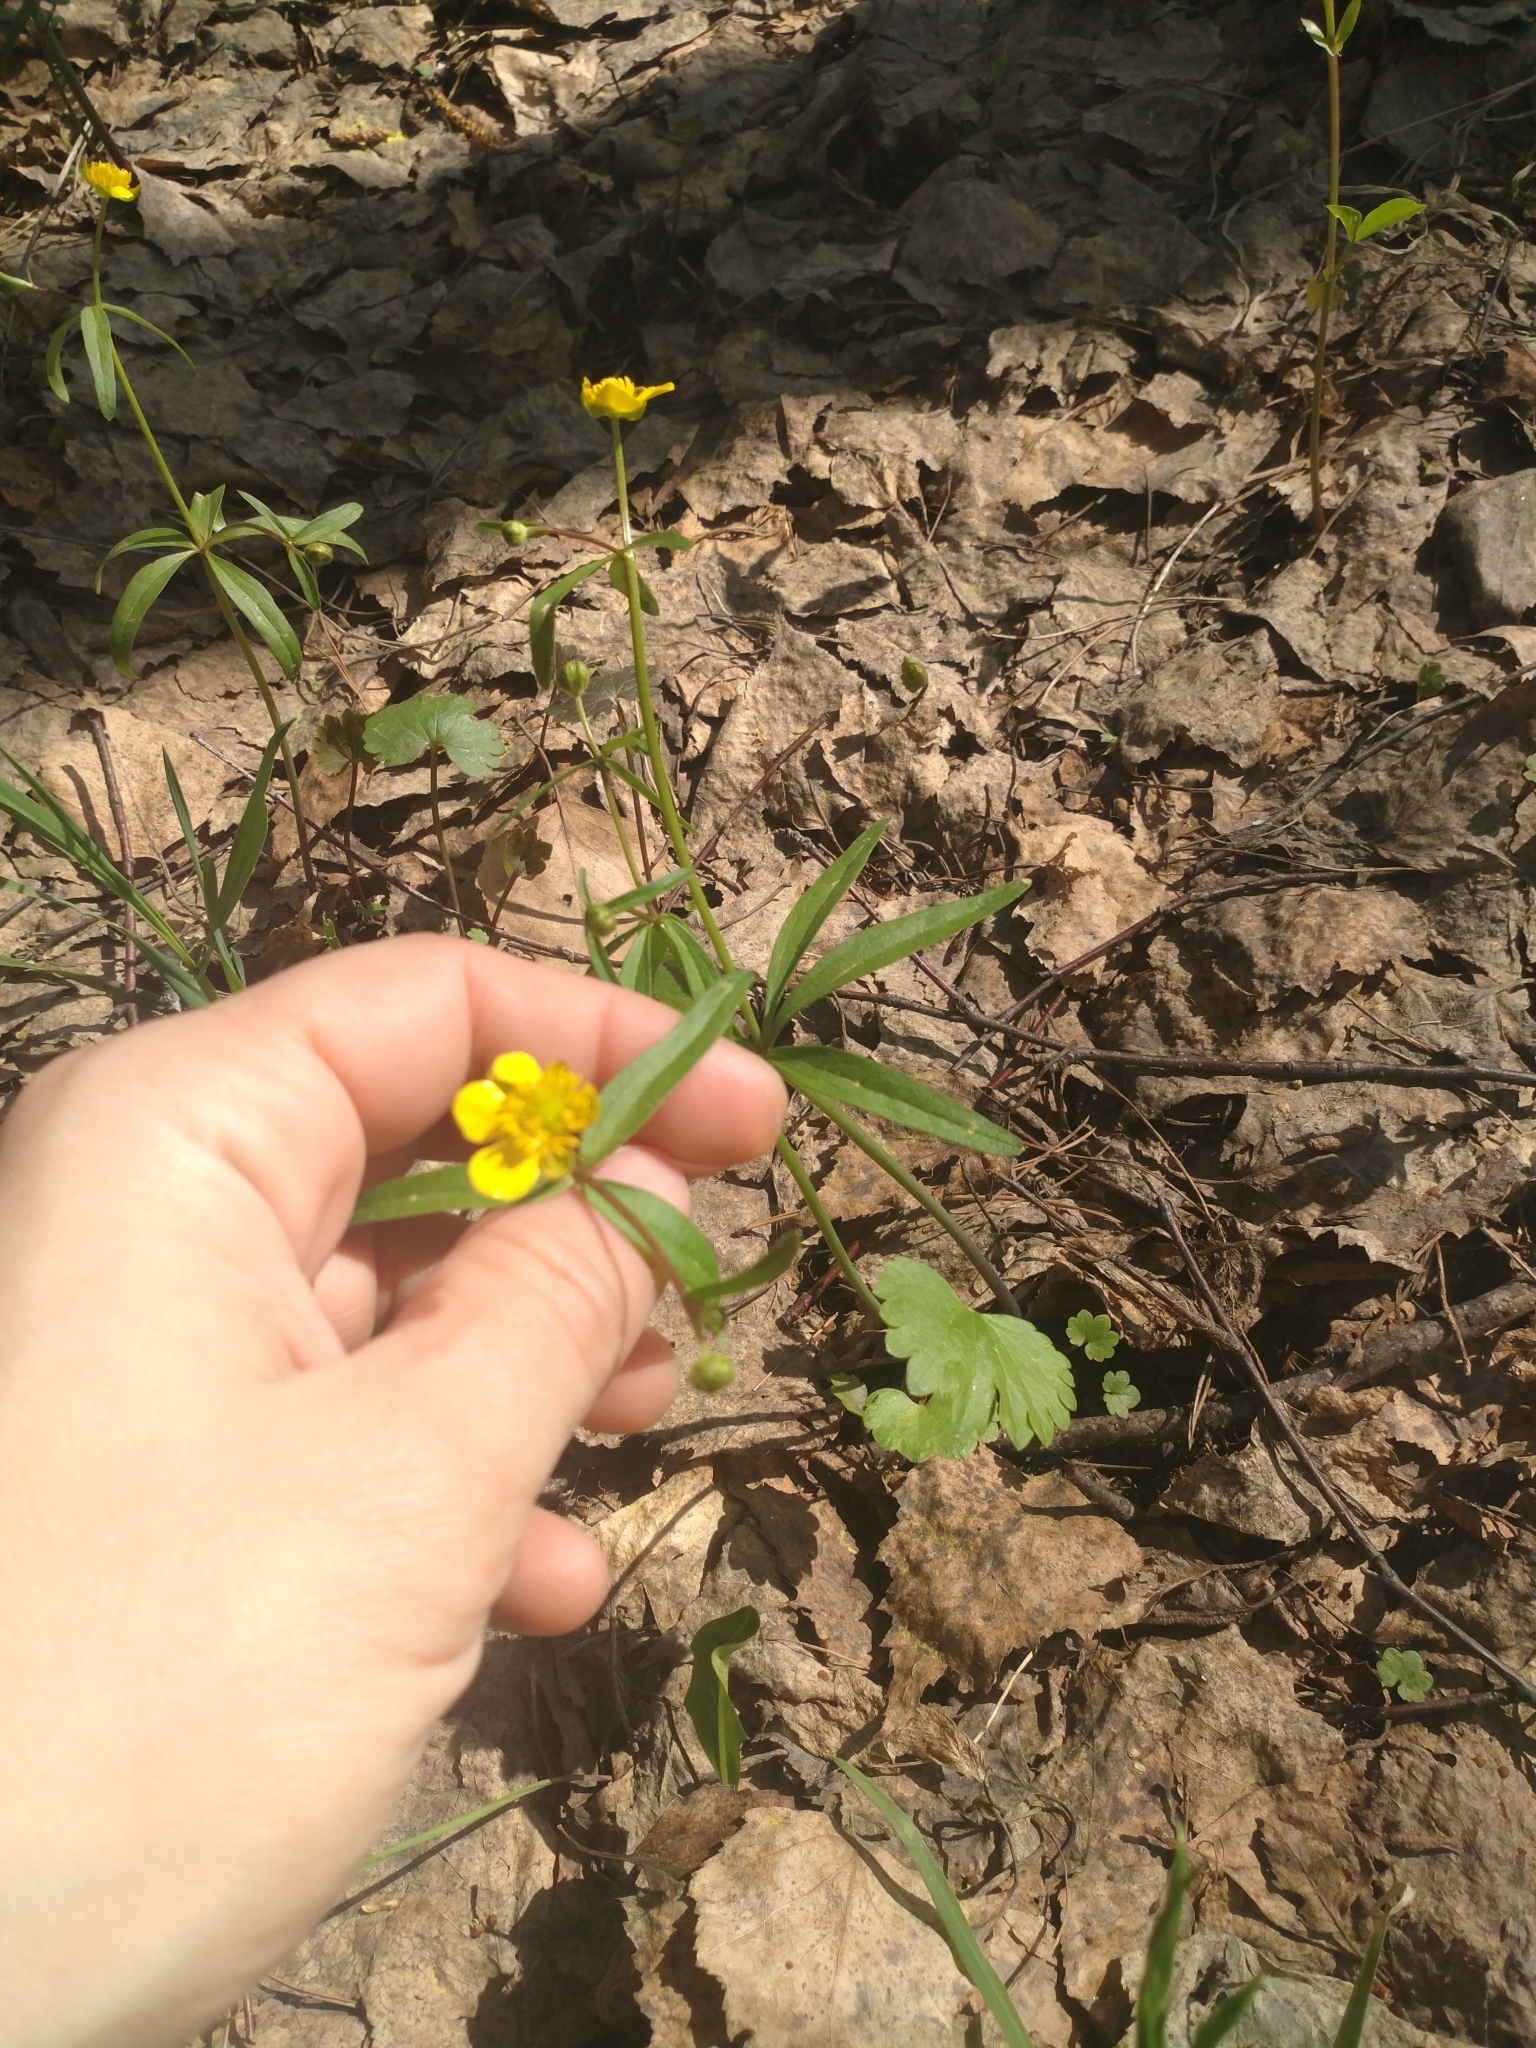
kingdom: Plantae
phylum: Tracheophyta
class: Magnoliopsida
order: Ranunculales
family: Ranunculaceae
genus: Ranunculus
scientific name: Ranunculus monophyllus
